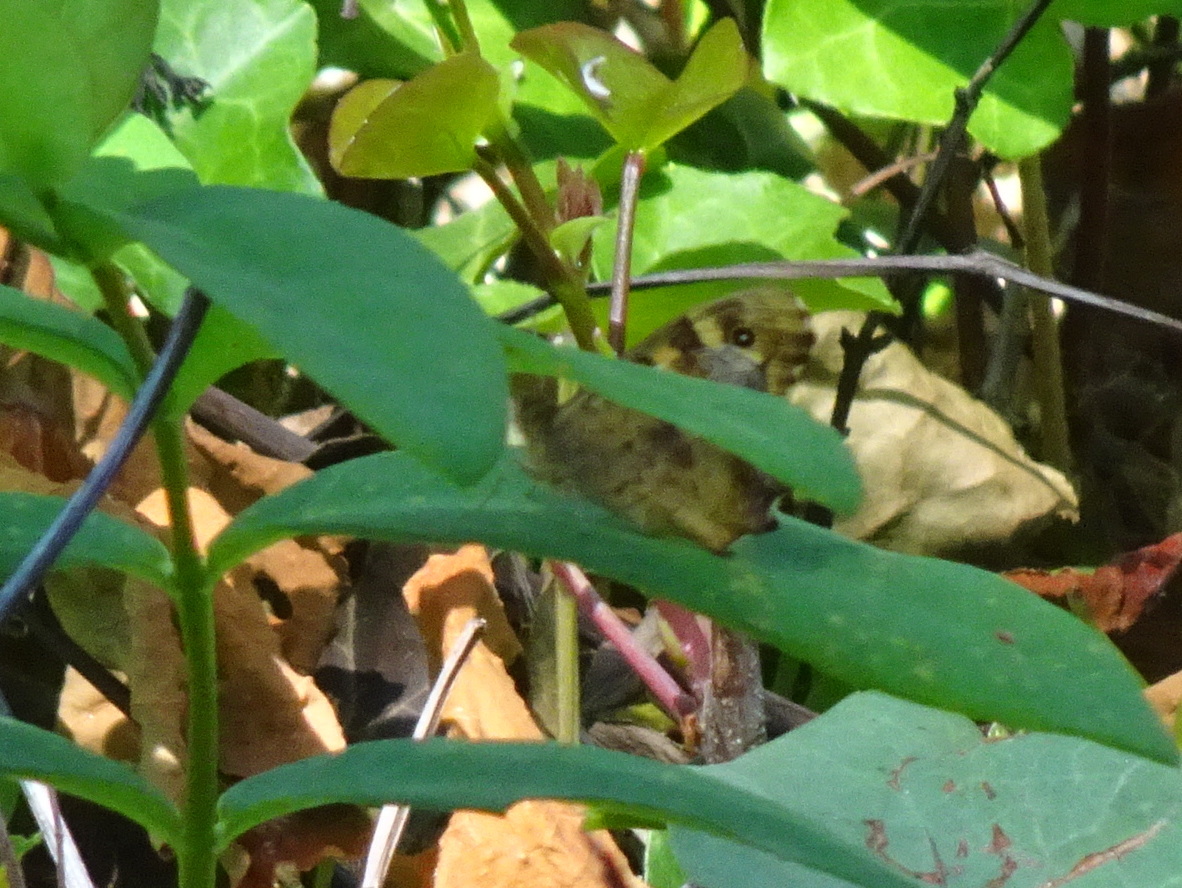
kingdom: Animalia
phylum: Arthropoda
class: Insecta
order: Lepidoptera
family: Nymphalidae
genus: Pararge
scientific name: Pararge aegeria
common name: Speckled wood
